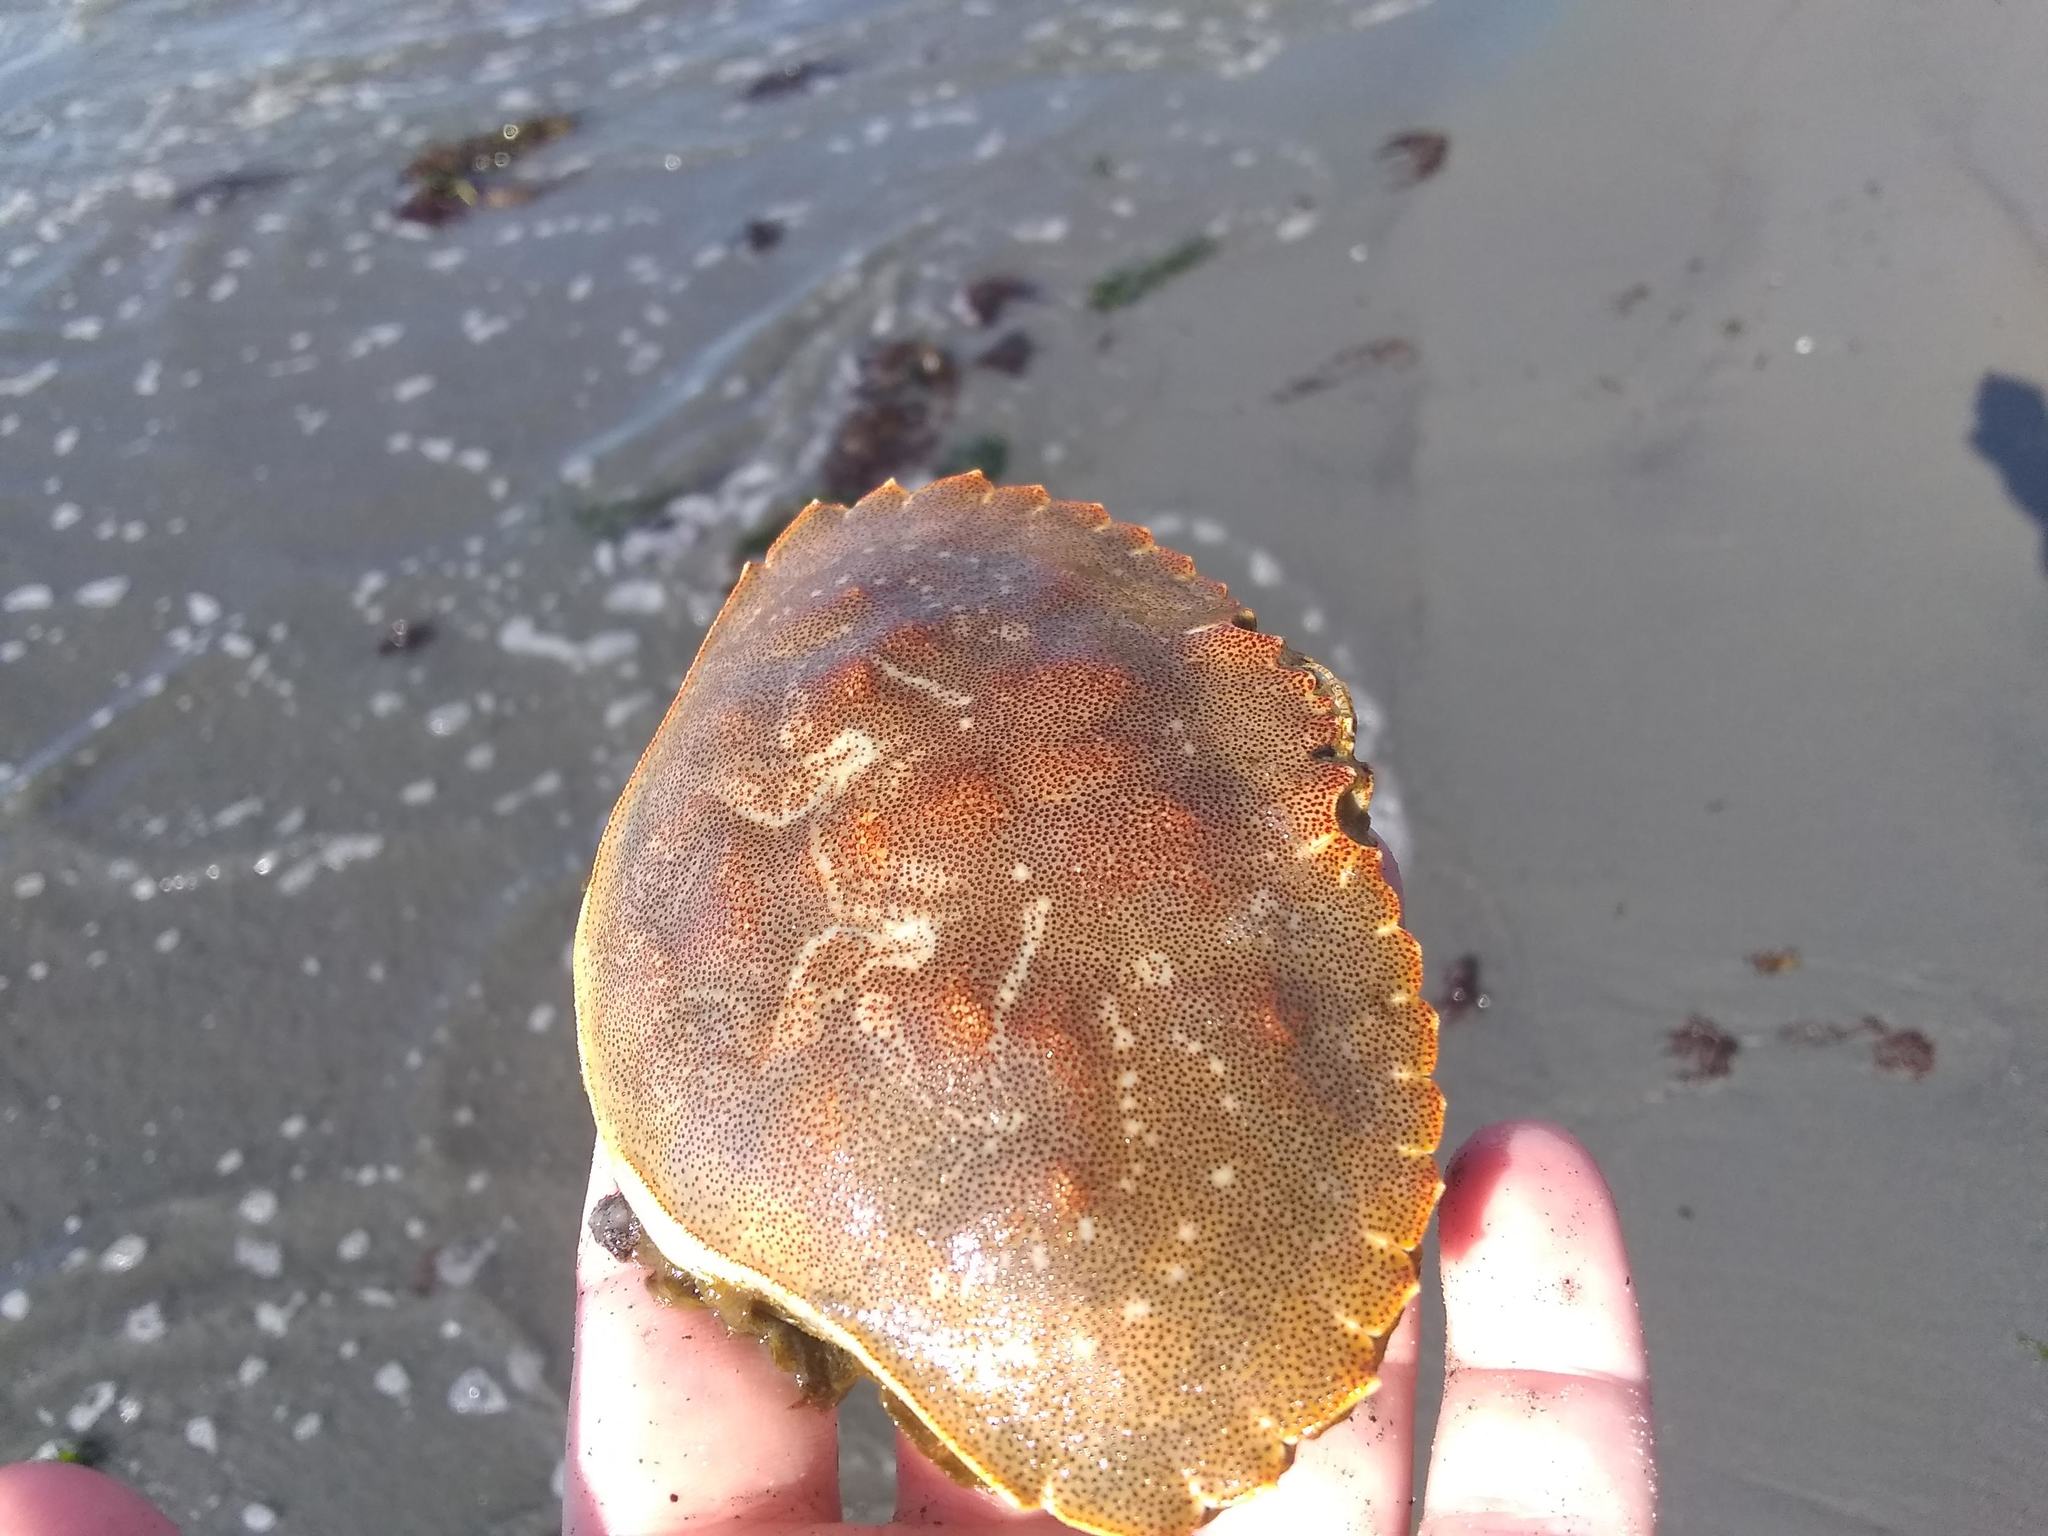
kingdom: Animalia
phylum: Arthropoda
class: Malacostraca
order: Decapoda
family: Cancridae
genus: Cancer
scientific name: Cancer irroratus
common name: Atlantic rock crab
